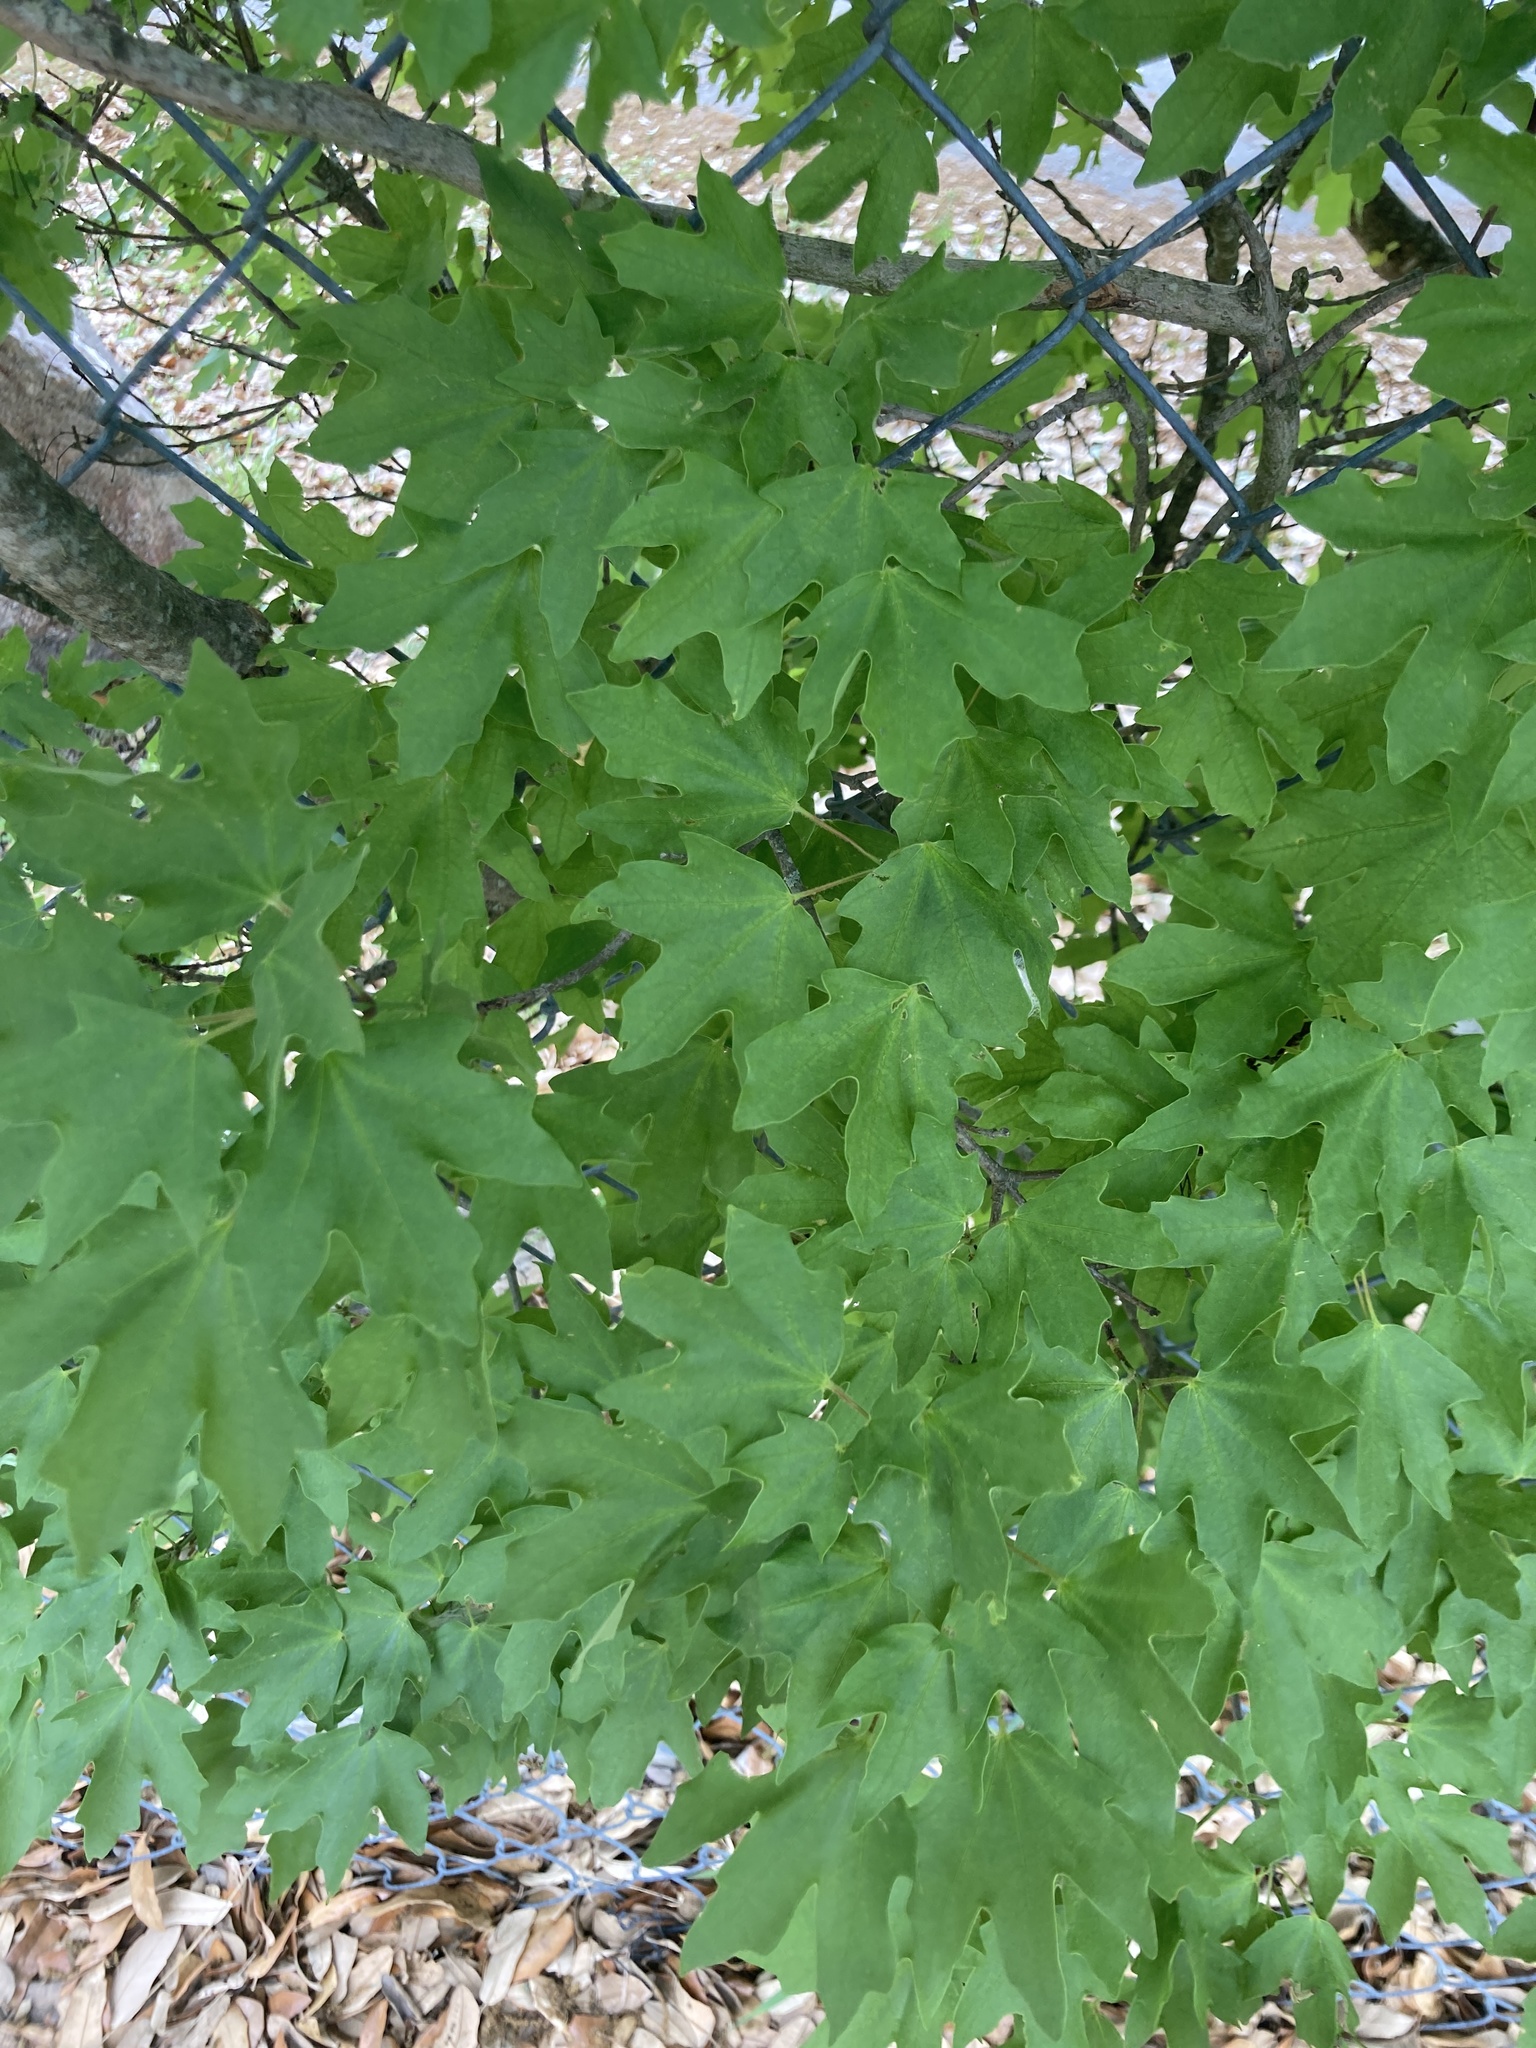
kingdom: Plantae
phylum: Tracheophyta
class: Magnoliopsida
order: Sapindales
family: Sapindaceae
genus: Acer
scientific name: Acer grandidentatum
